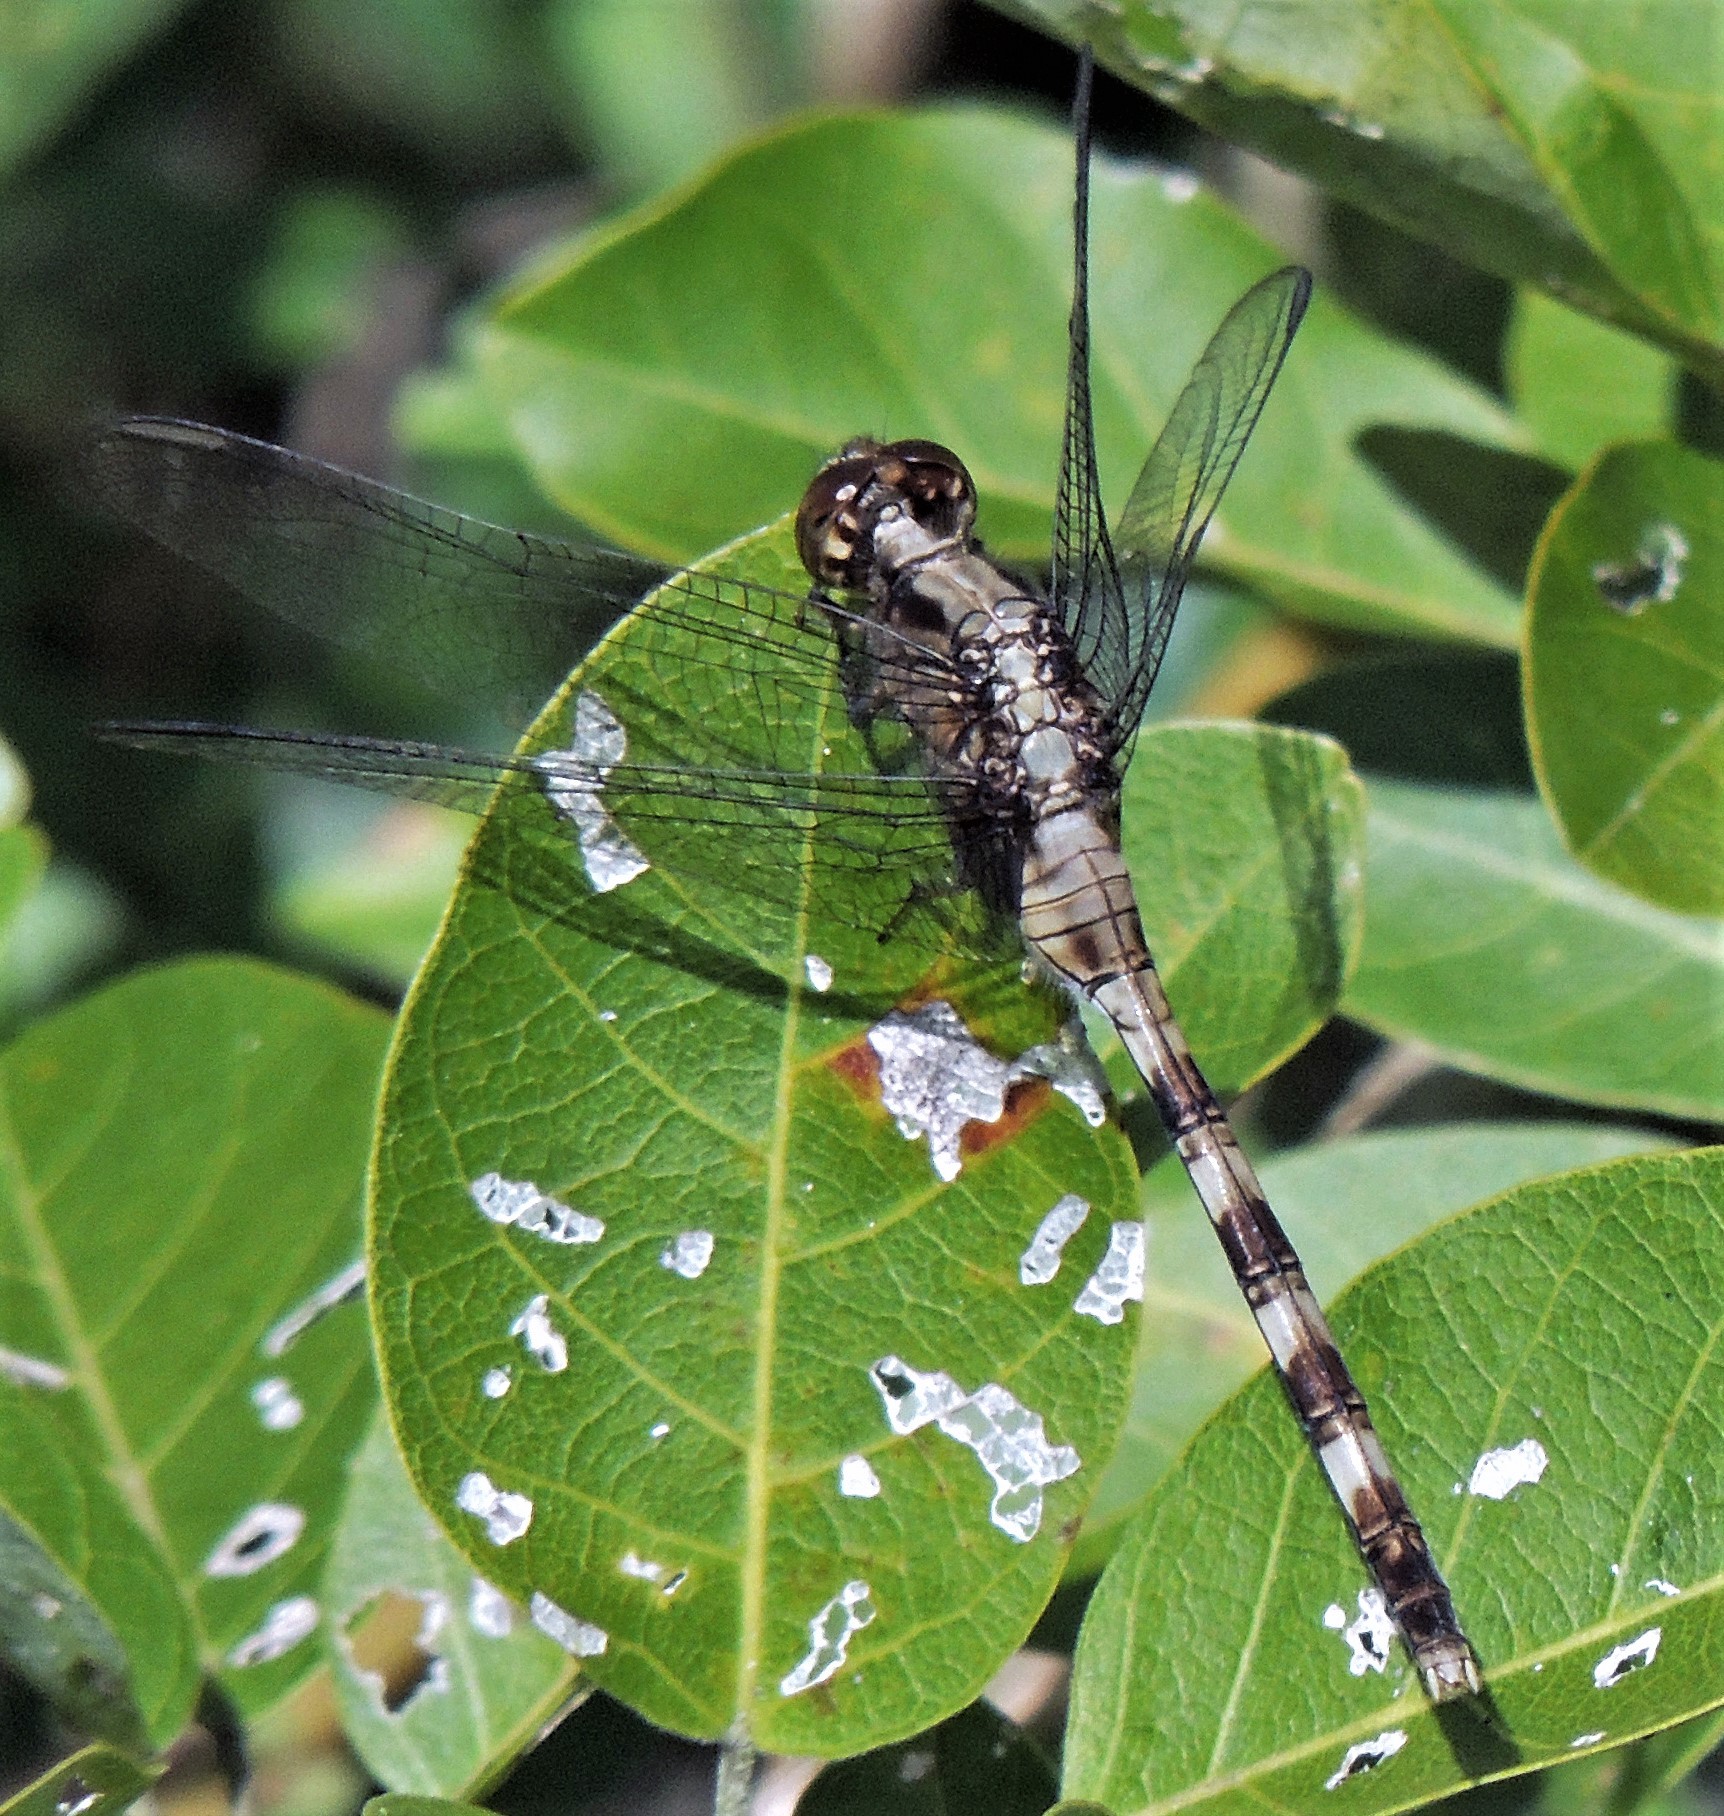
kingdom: Animalia
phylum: Arthropoda
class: Insecta
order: Odonata
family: Libellulidae
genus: Erythemis
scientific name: Erythemis plebeja
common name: Pin-tailed pondhawk
